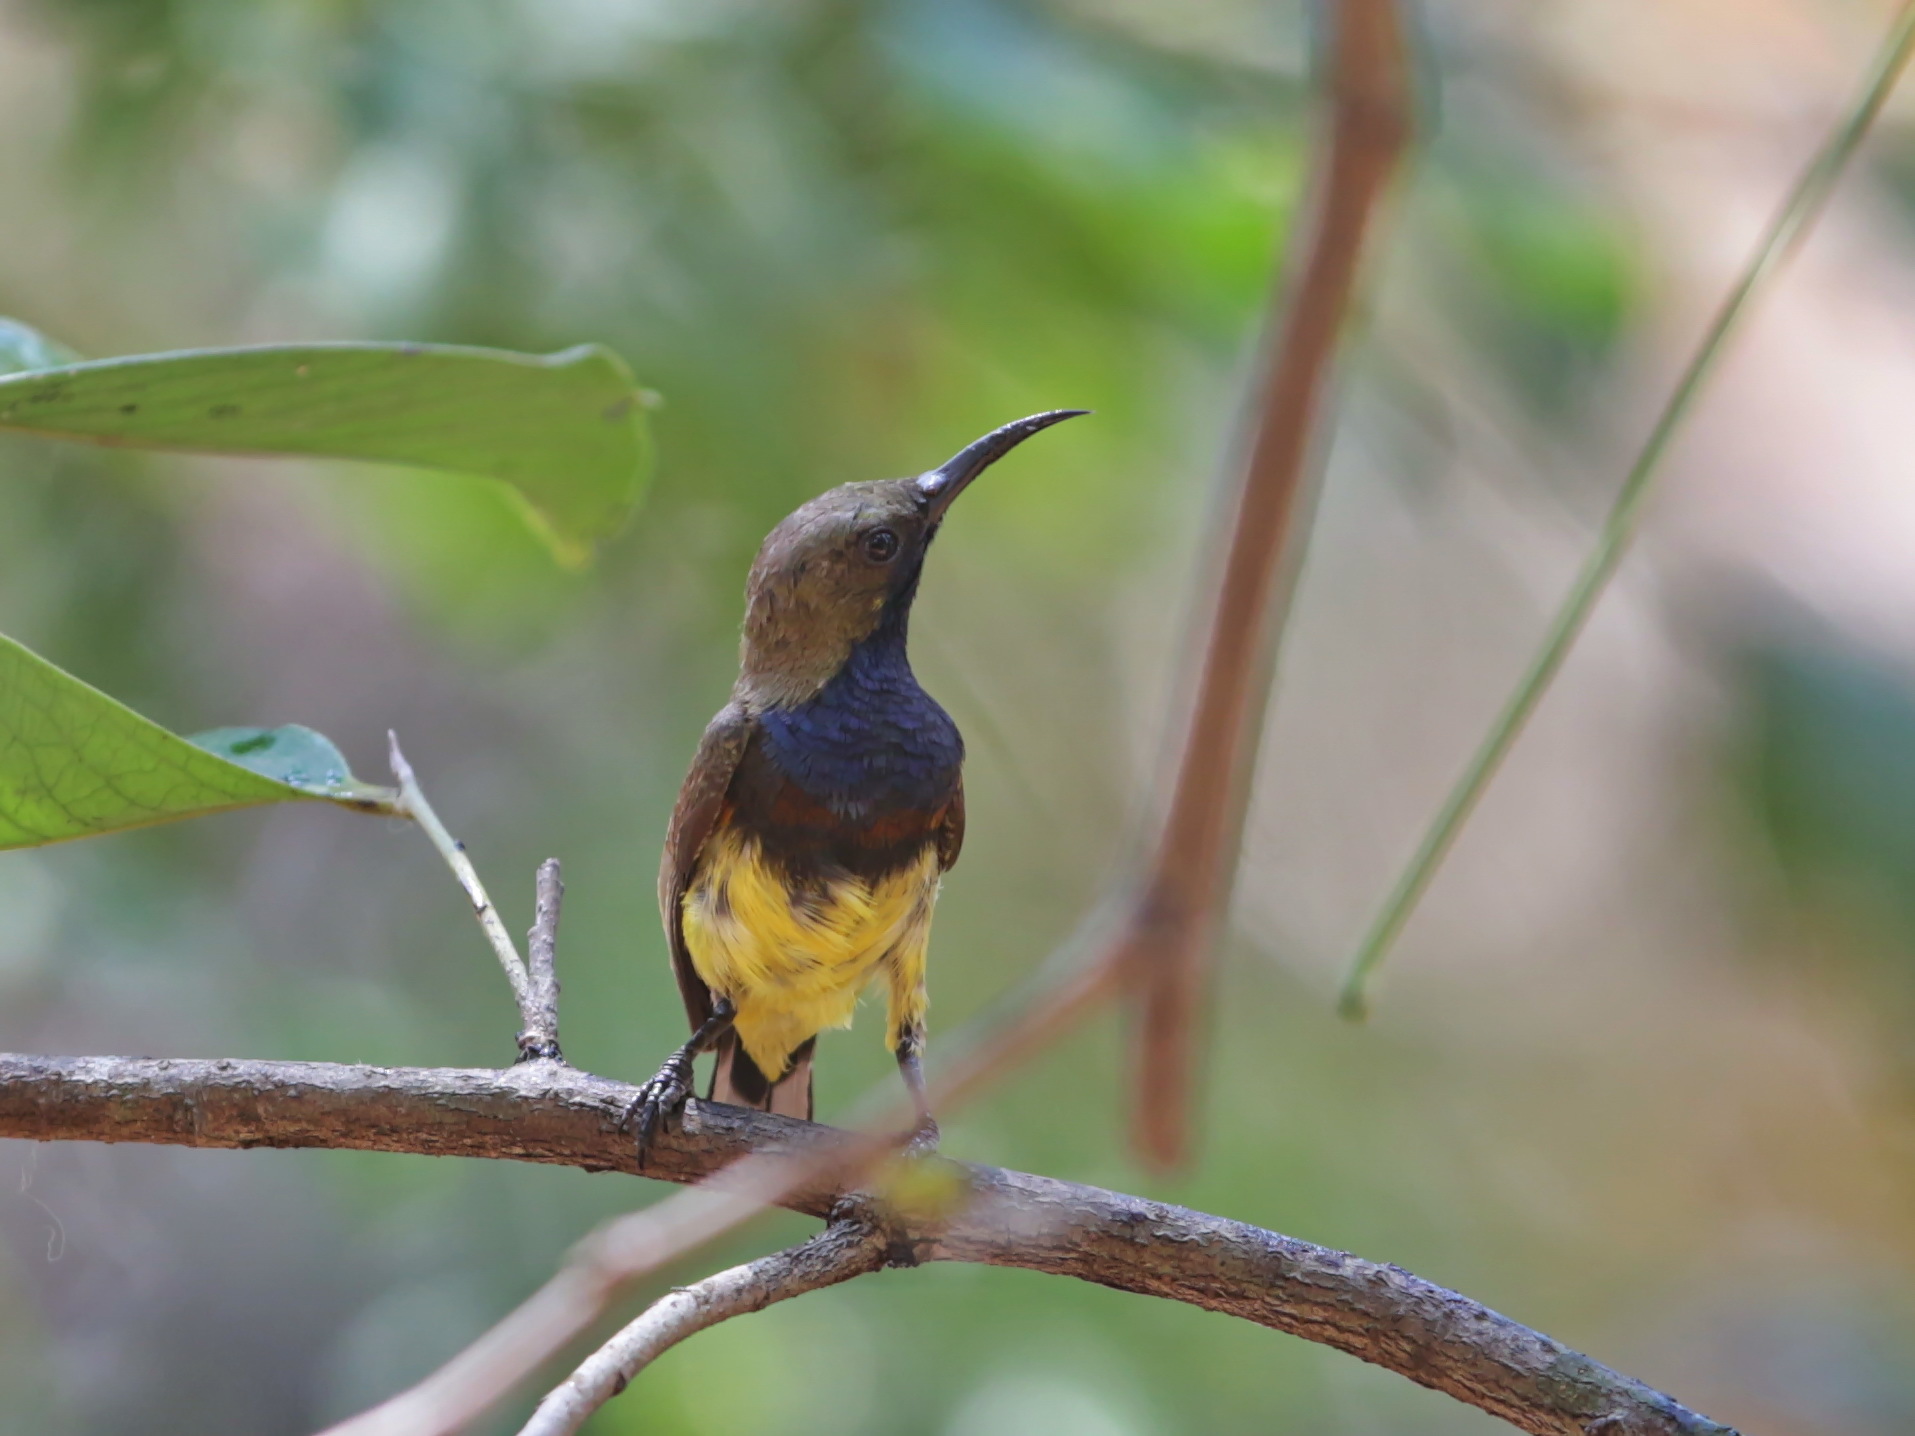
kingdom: Animalia
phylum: Chordata
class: Aves
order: Passeriformes
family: Nectariniidae
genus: Cinnyris
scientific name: Cinnyris
